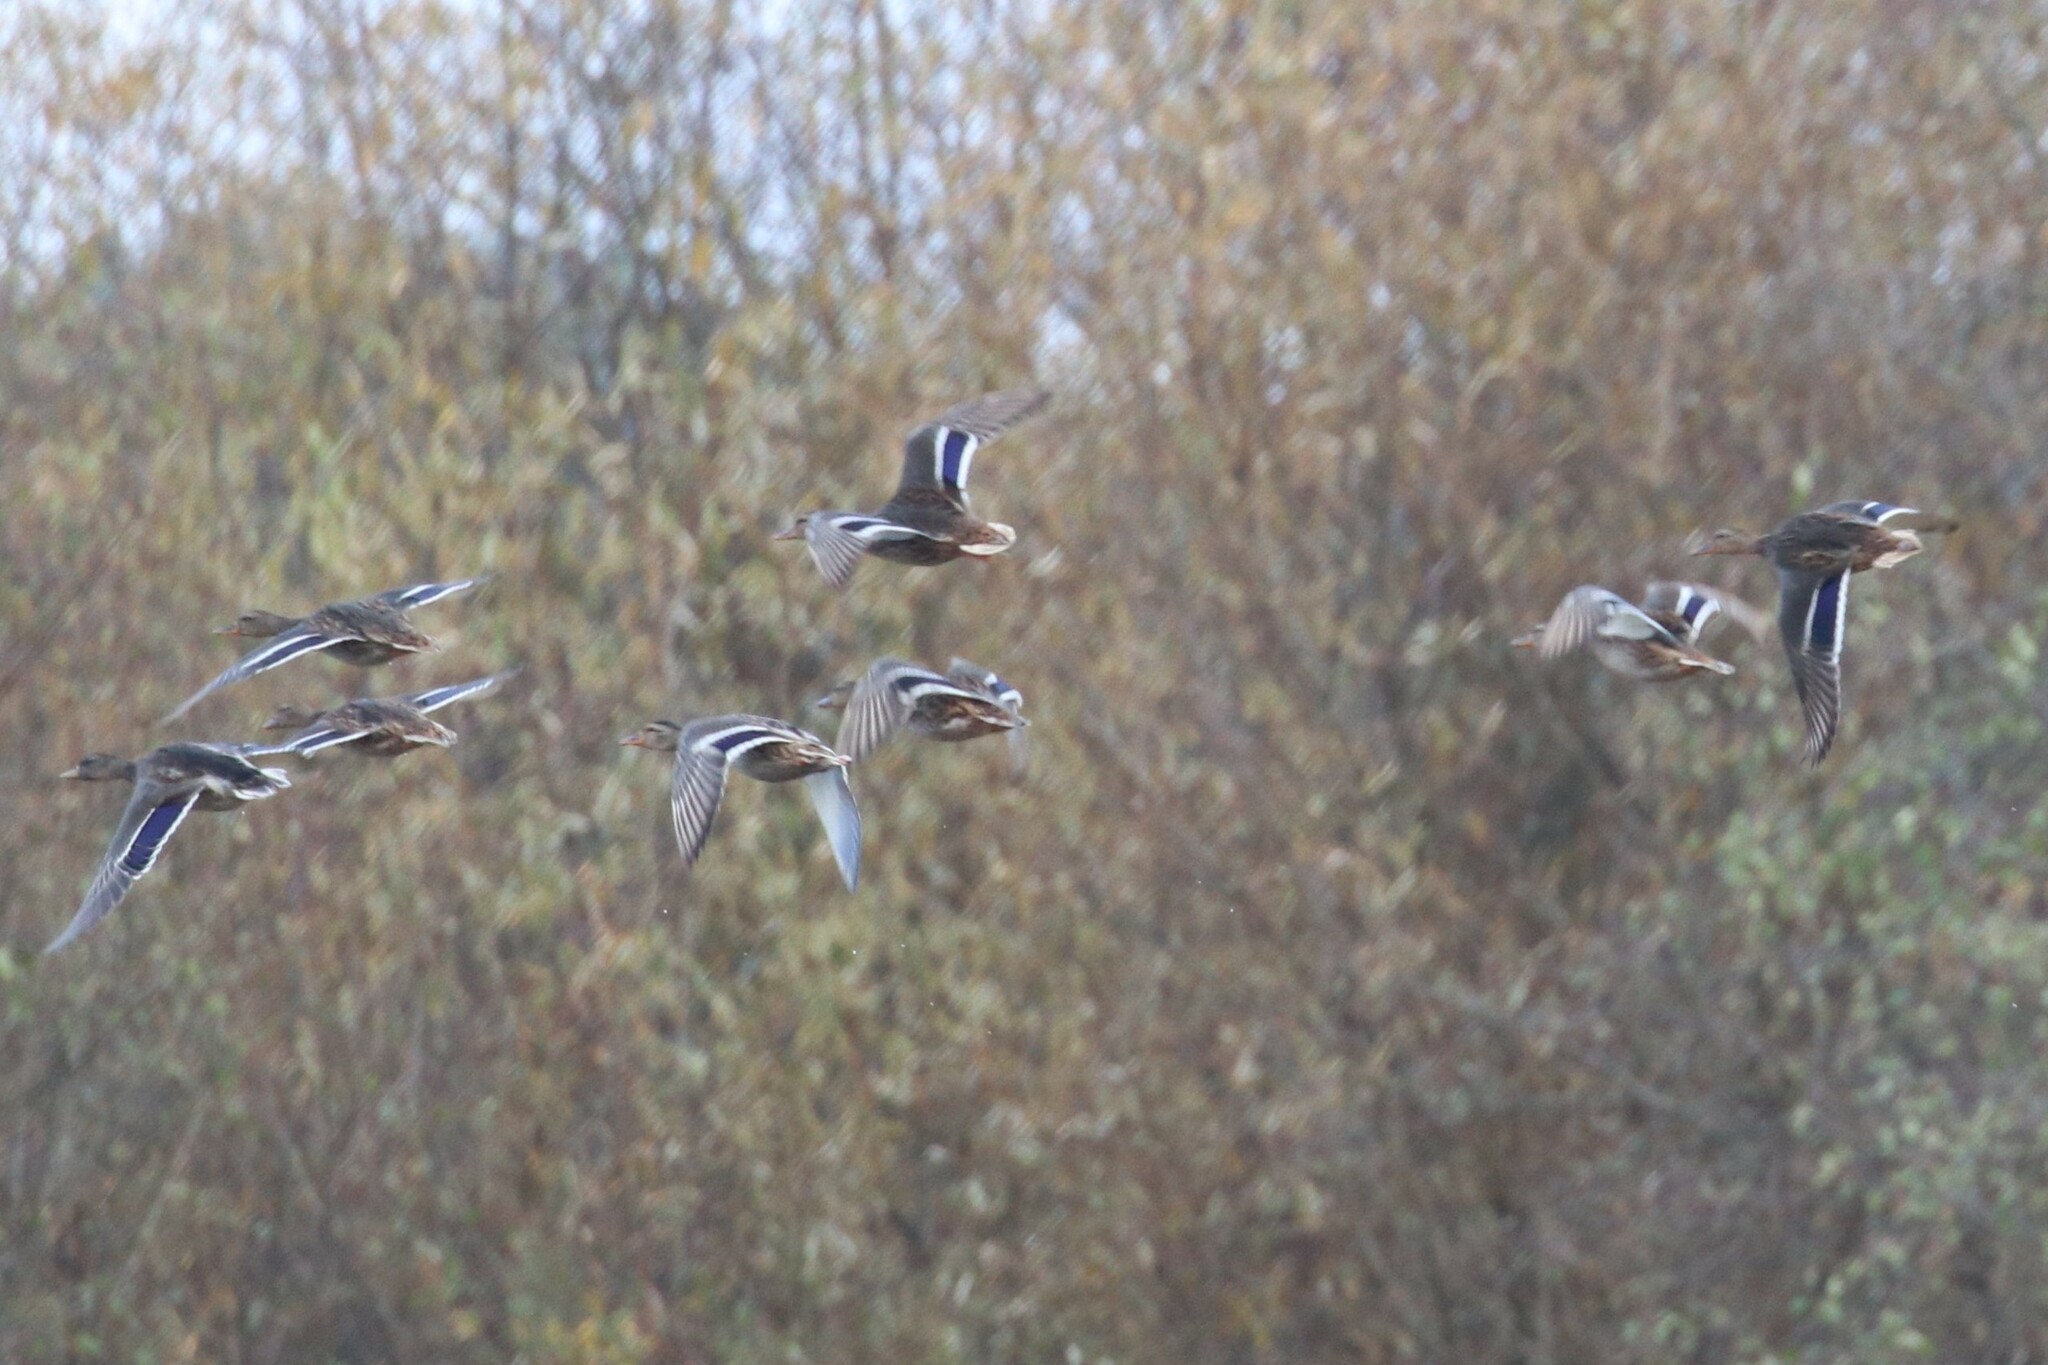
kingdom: Animalia
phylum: Chordata
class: Aves
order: Anseriformes
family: Anatidae
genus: Anas
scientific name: Anas platyrhynchos
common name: Mallard
